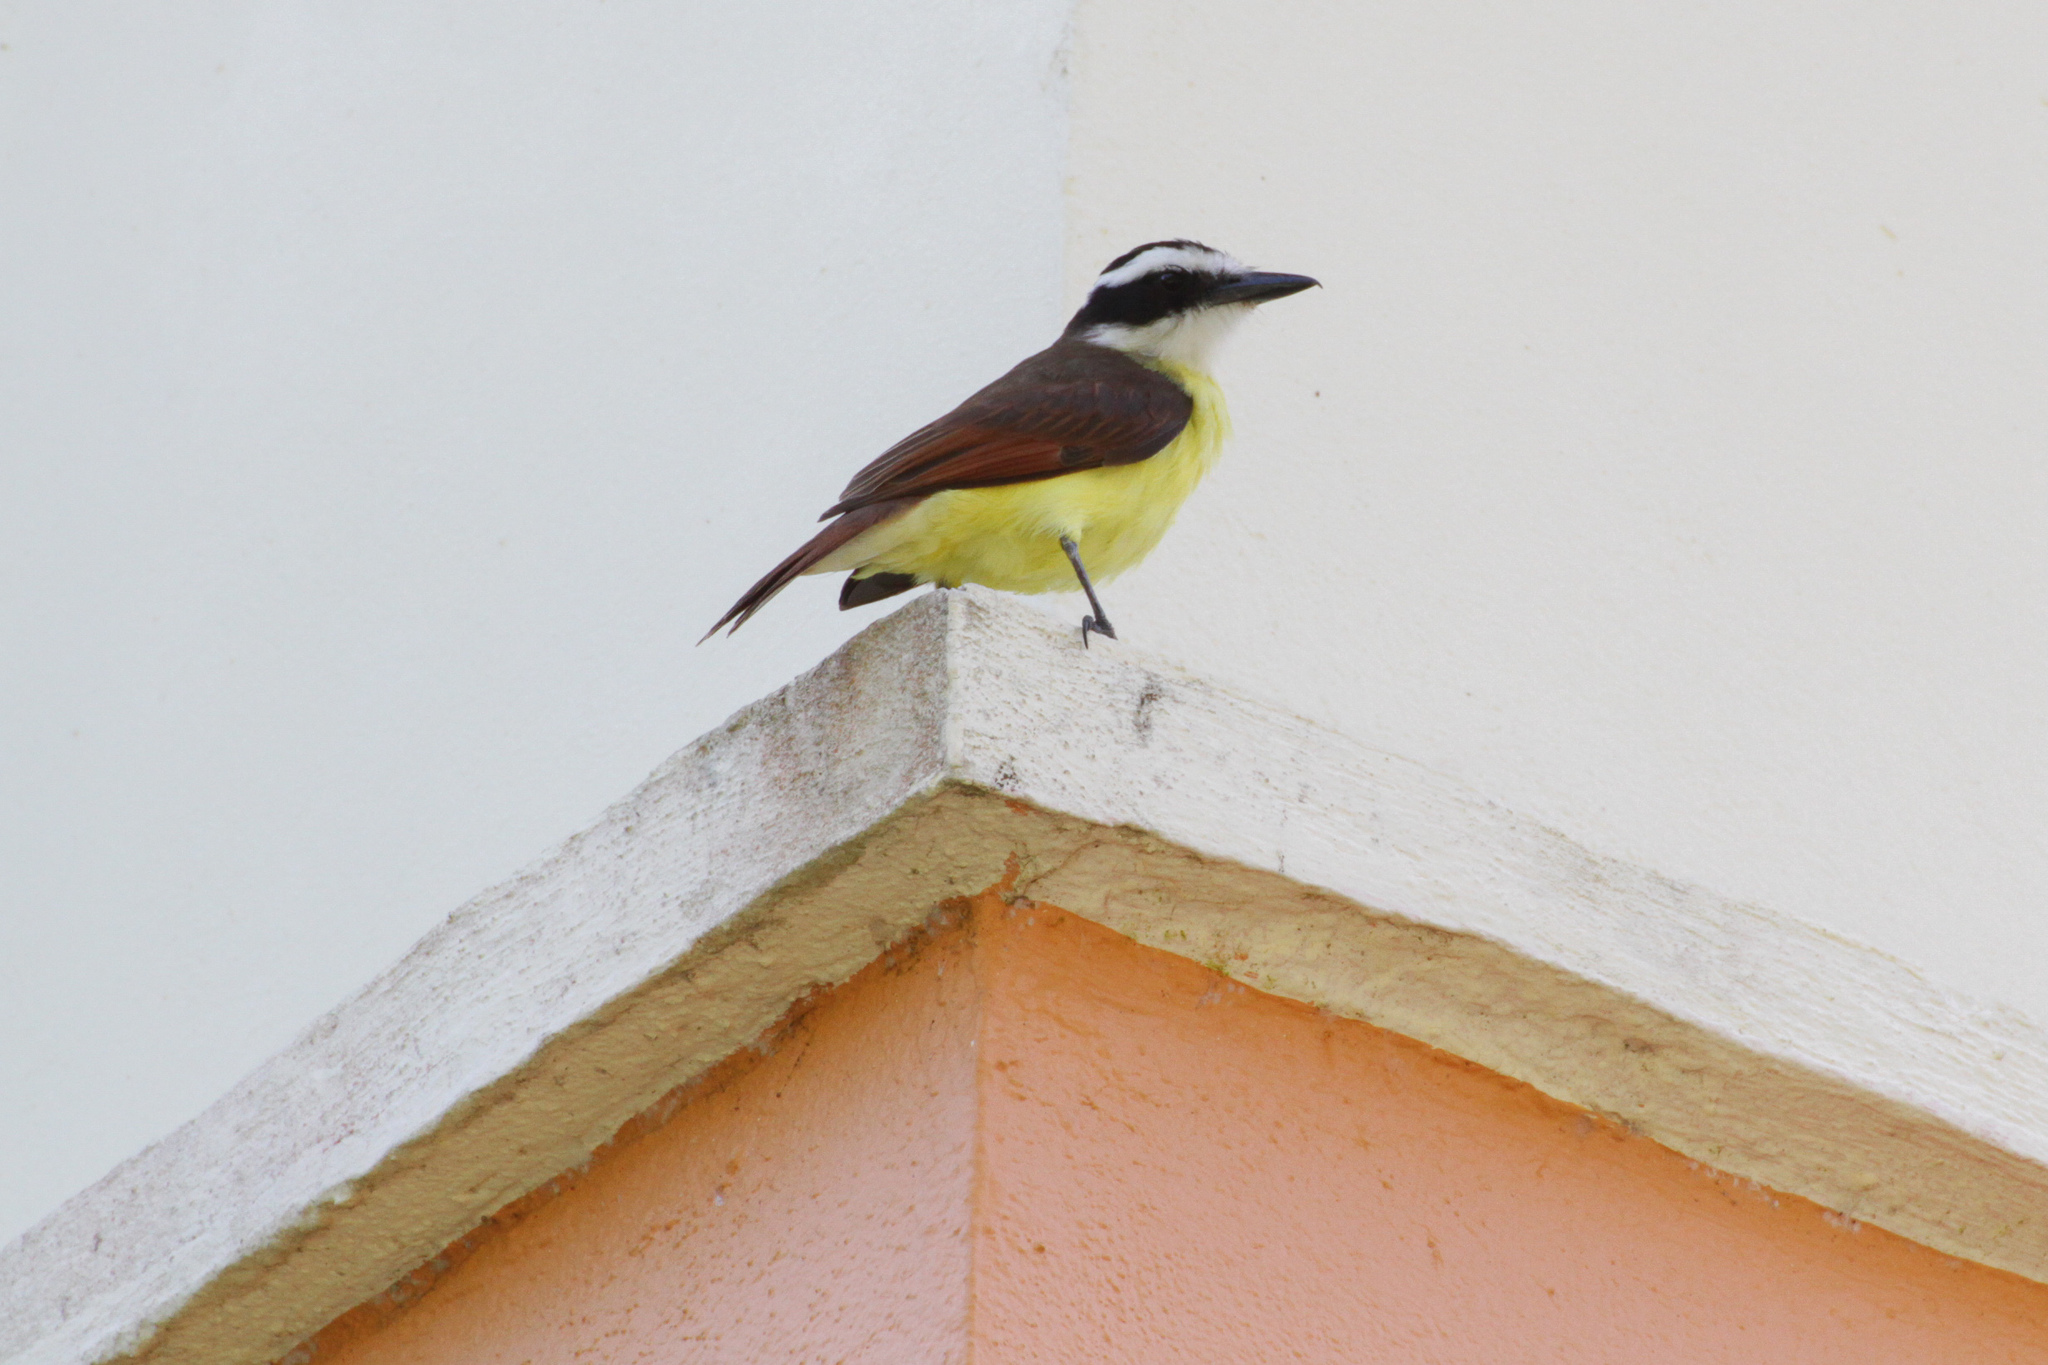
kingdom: Animalia
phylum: Chordata
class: Aves
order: Passeriformes
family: Tyrannidae
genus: Pitangus
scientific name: Pitangus sulphuratus
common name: Great kiskadee
